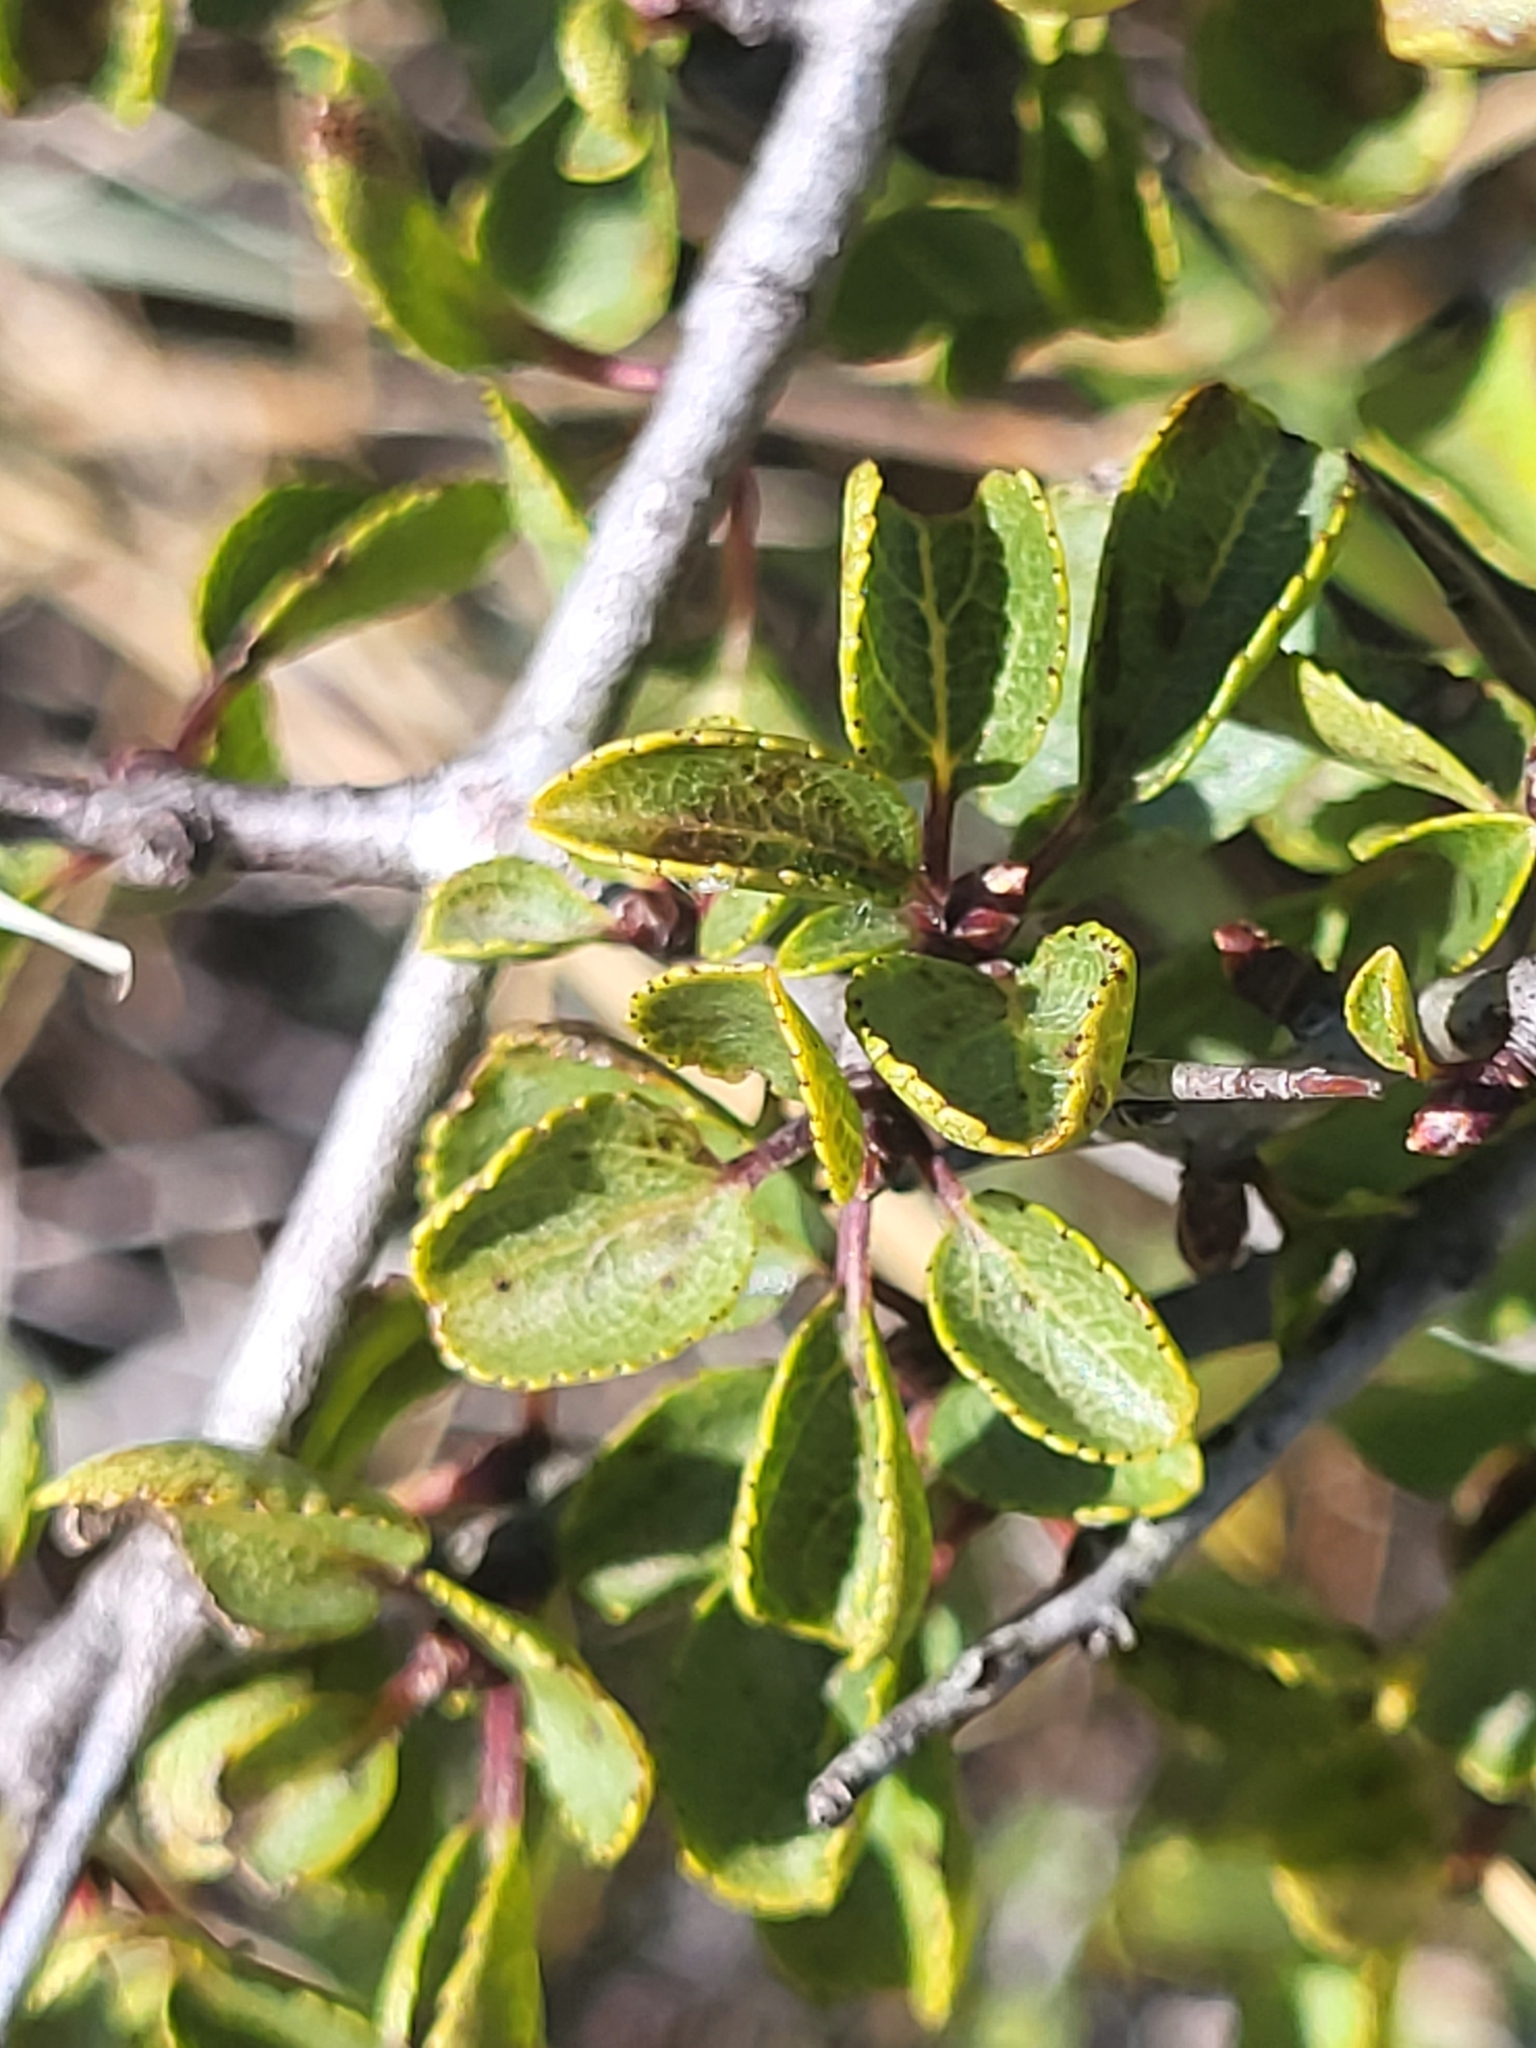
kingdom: Plantae
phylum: Tracheophyta
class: Magnoliopsida
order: Rosales
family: Rhamnaceae
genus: Rhamnus
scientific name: Rhamnus intermedia
